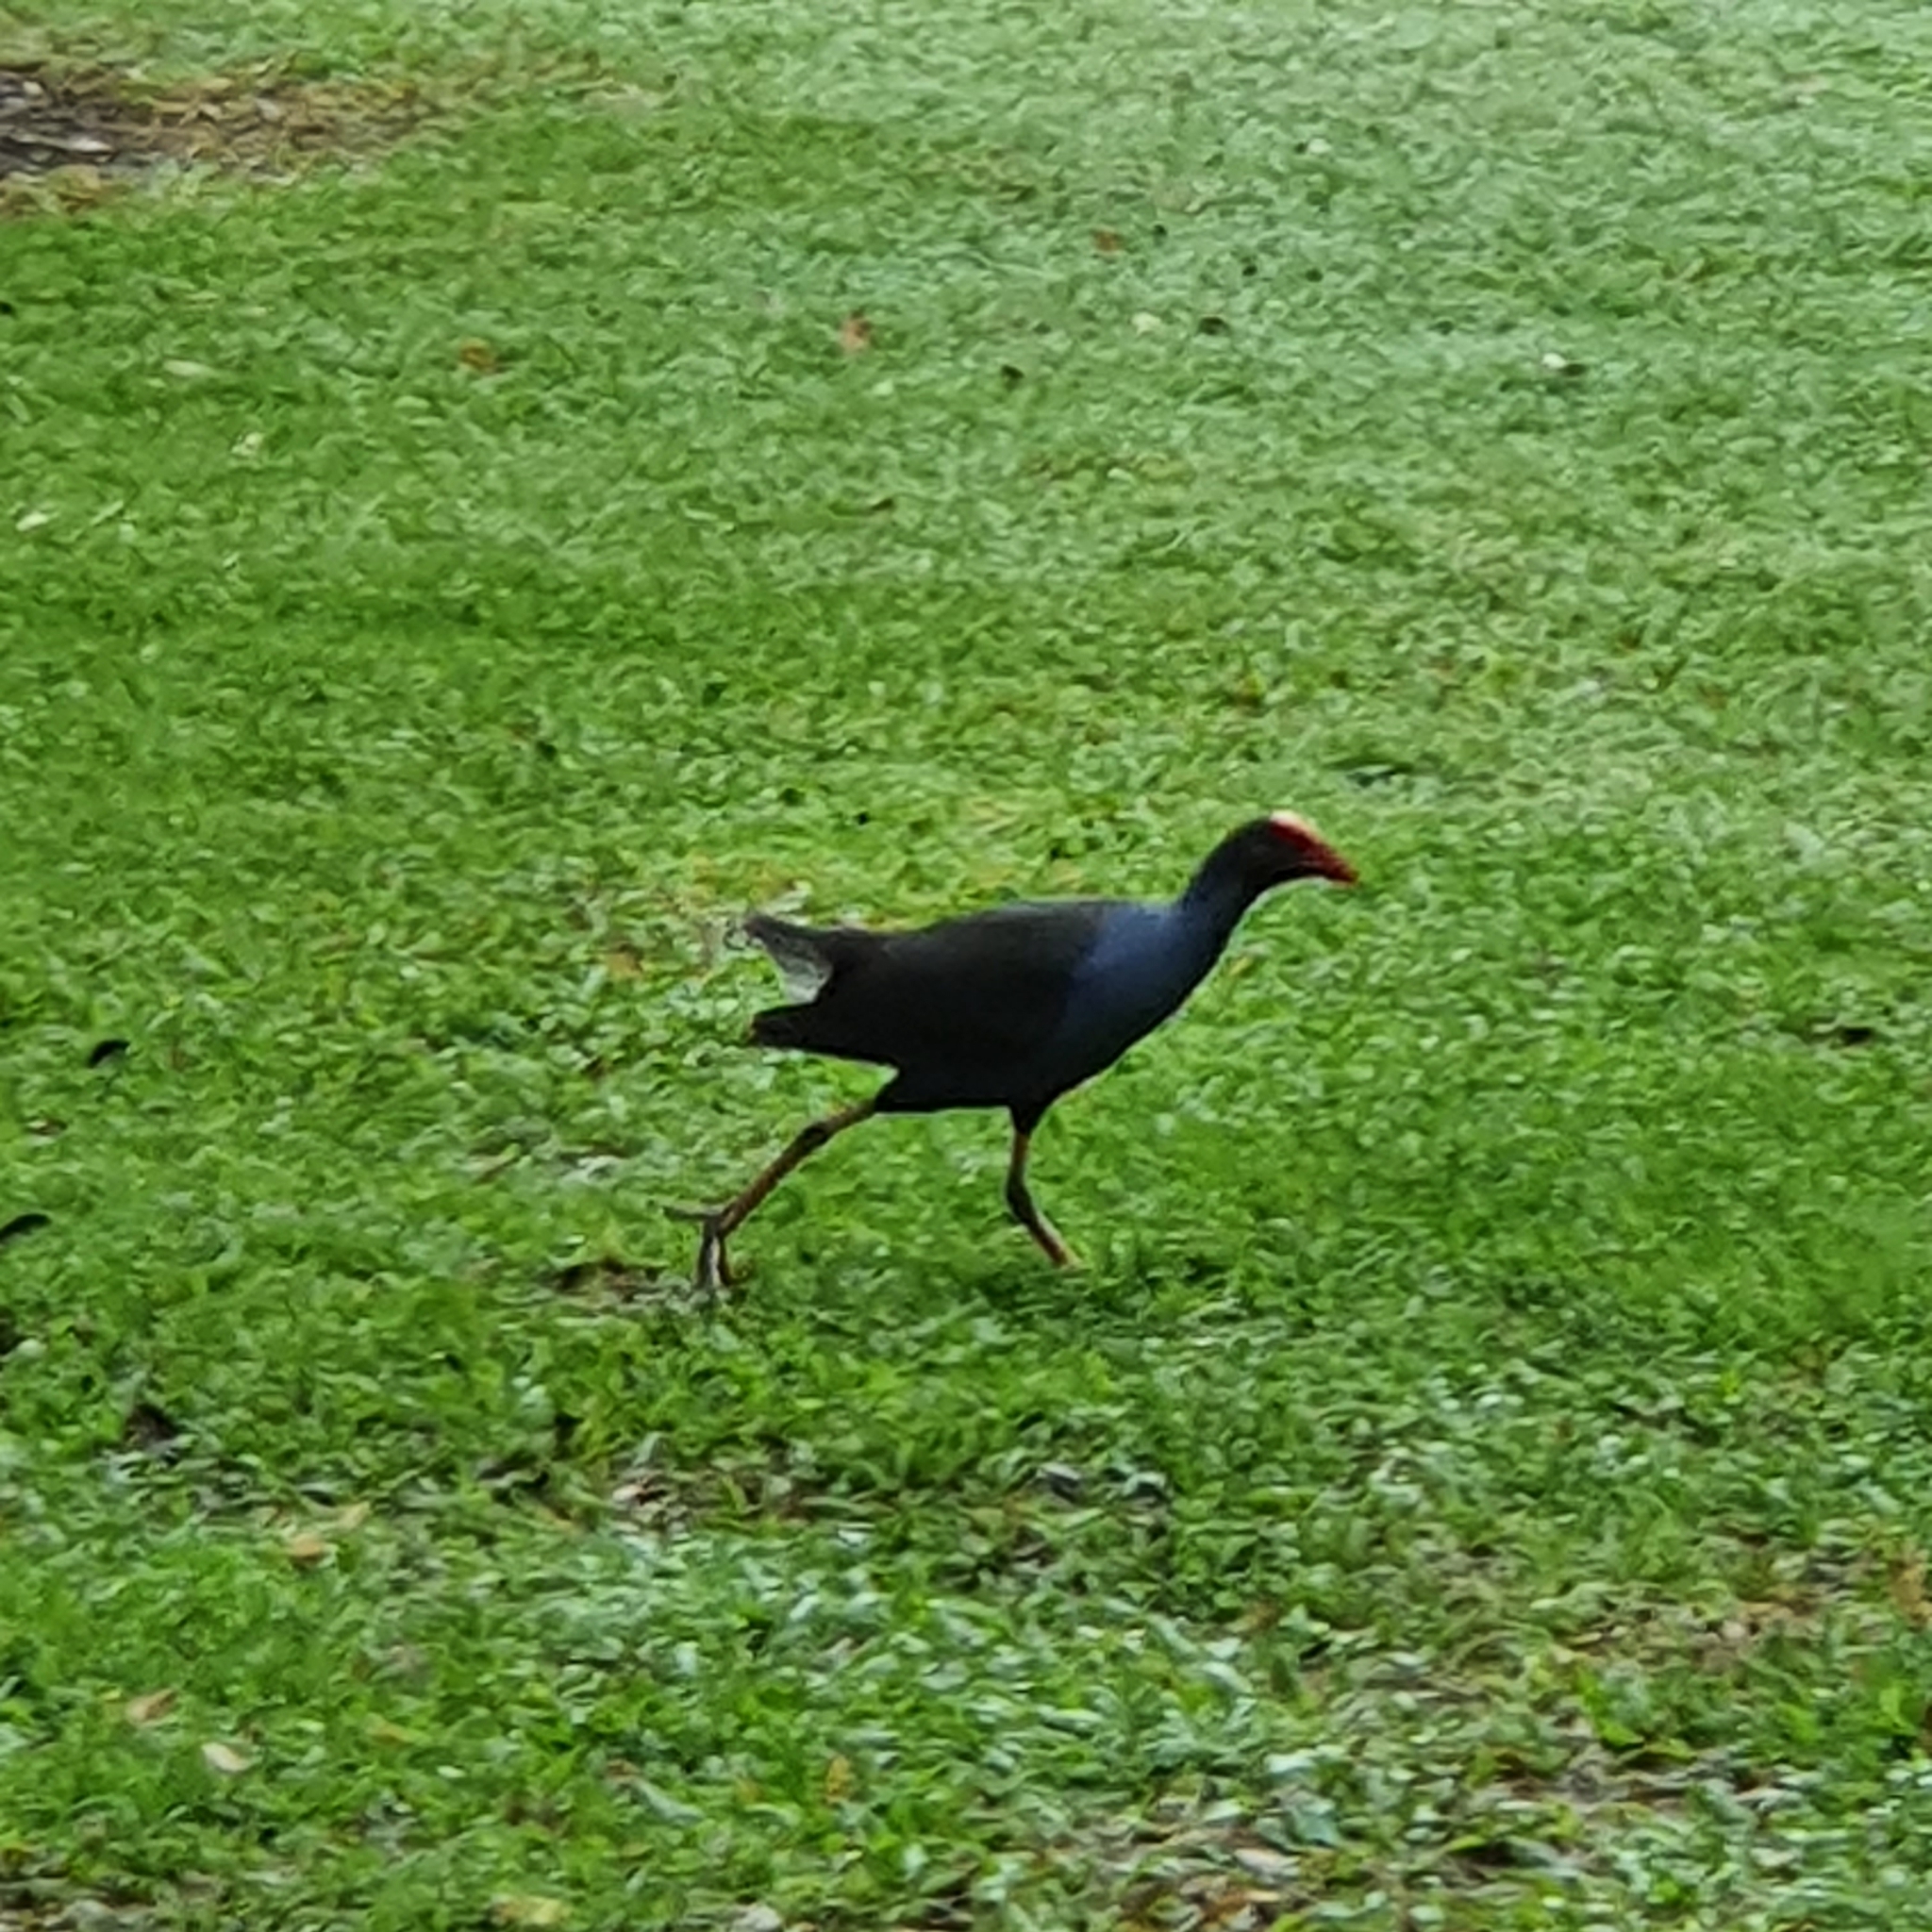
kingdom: Animalia
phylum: Chordata
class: Aves
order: Gruiformes
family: Rallidae
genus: Porphyrio
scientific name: Porphyrio melanotus
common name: Australasian swamphen
